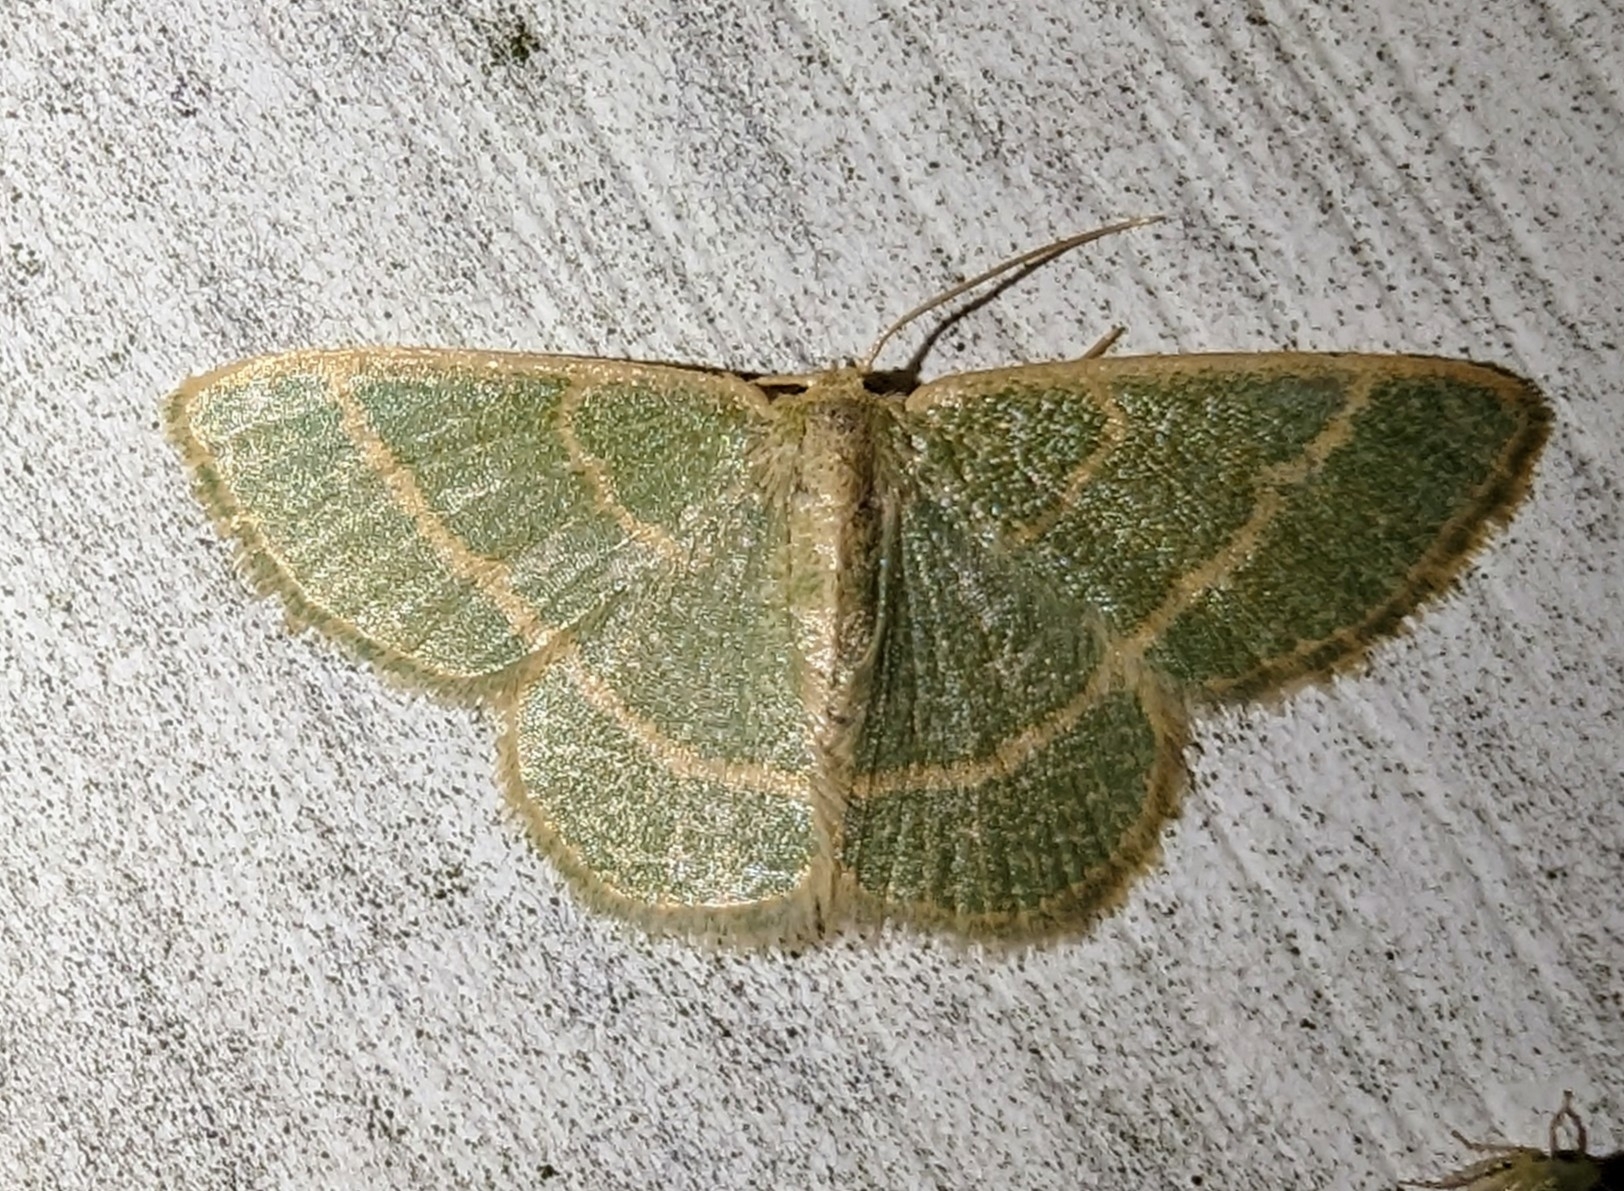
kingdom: Animalia
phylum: Arthropoda
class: Insecta
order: Lepidoptera
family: Geometridae
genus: Chlorochlamys
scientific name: Chlorochlamys chloroleucaria
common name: Blackberry looper
